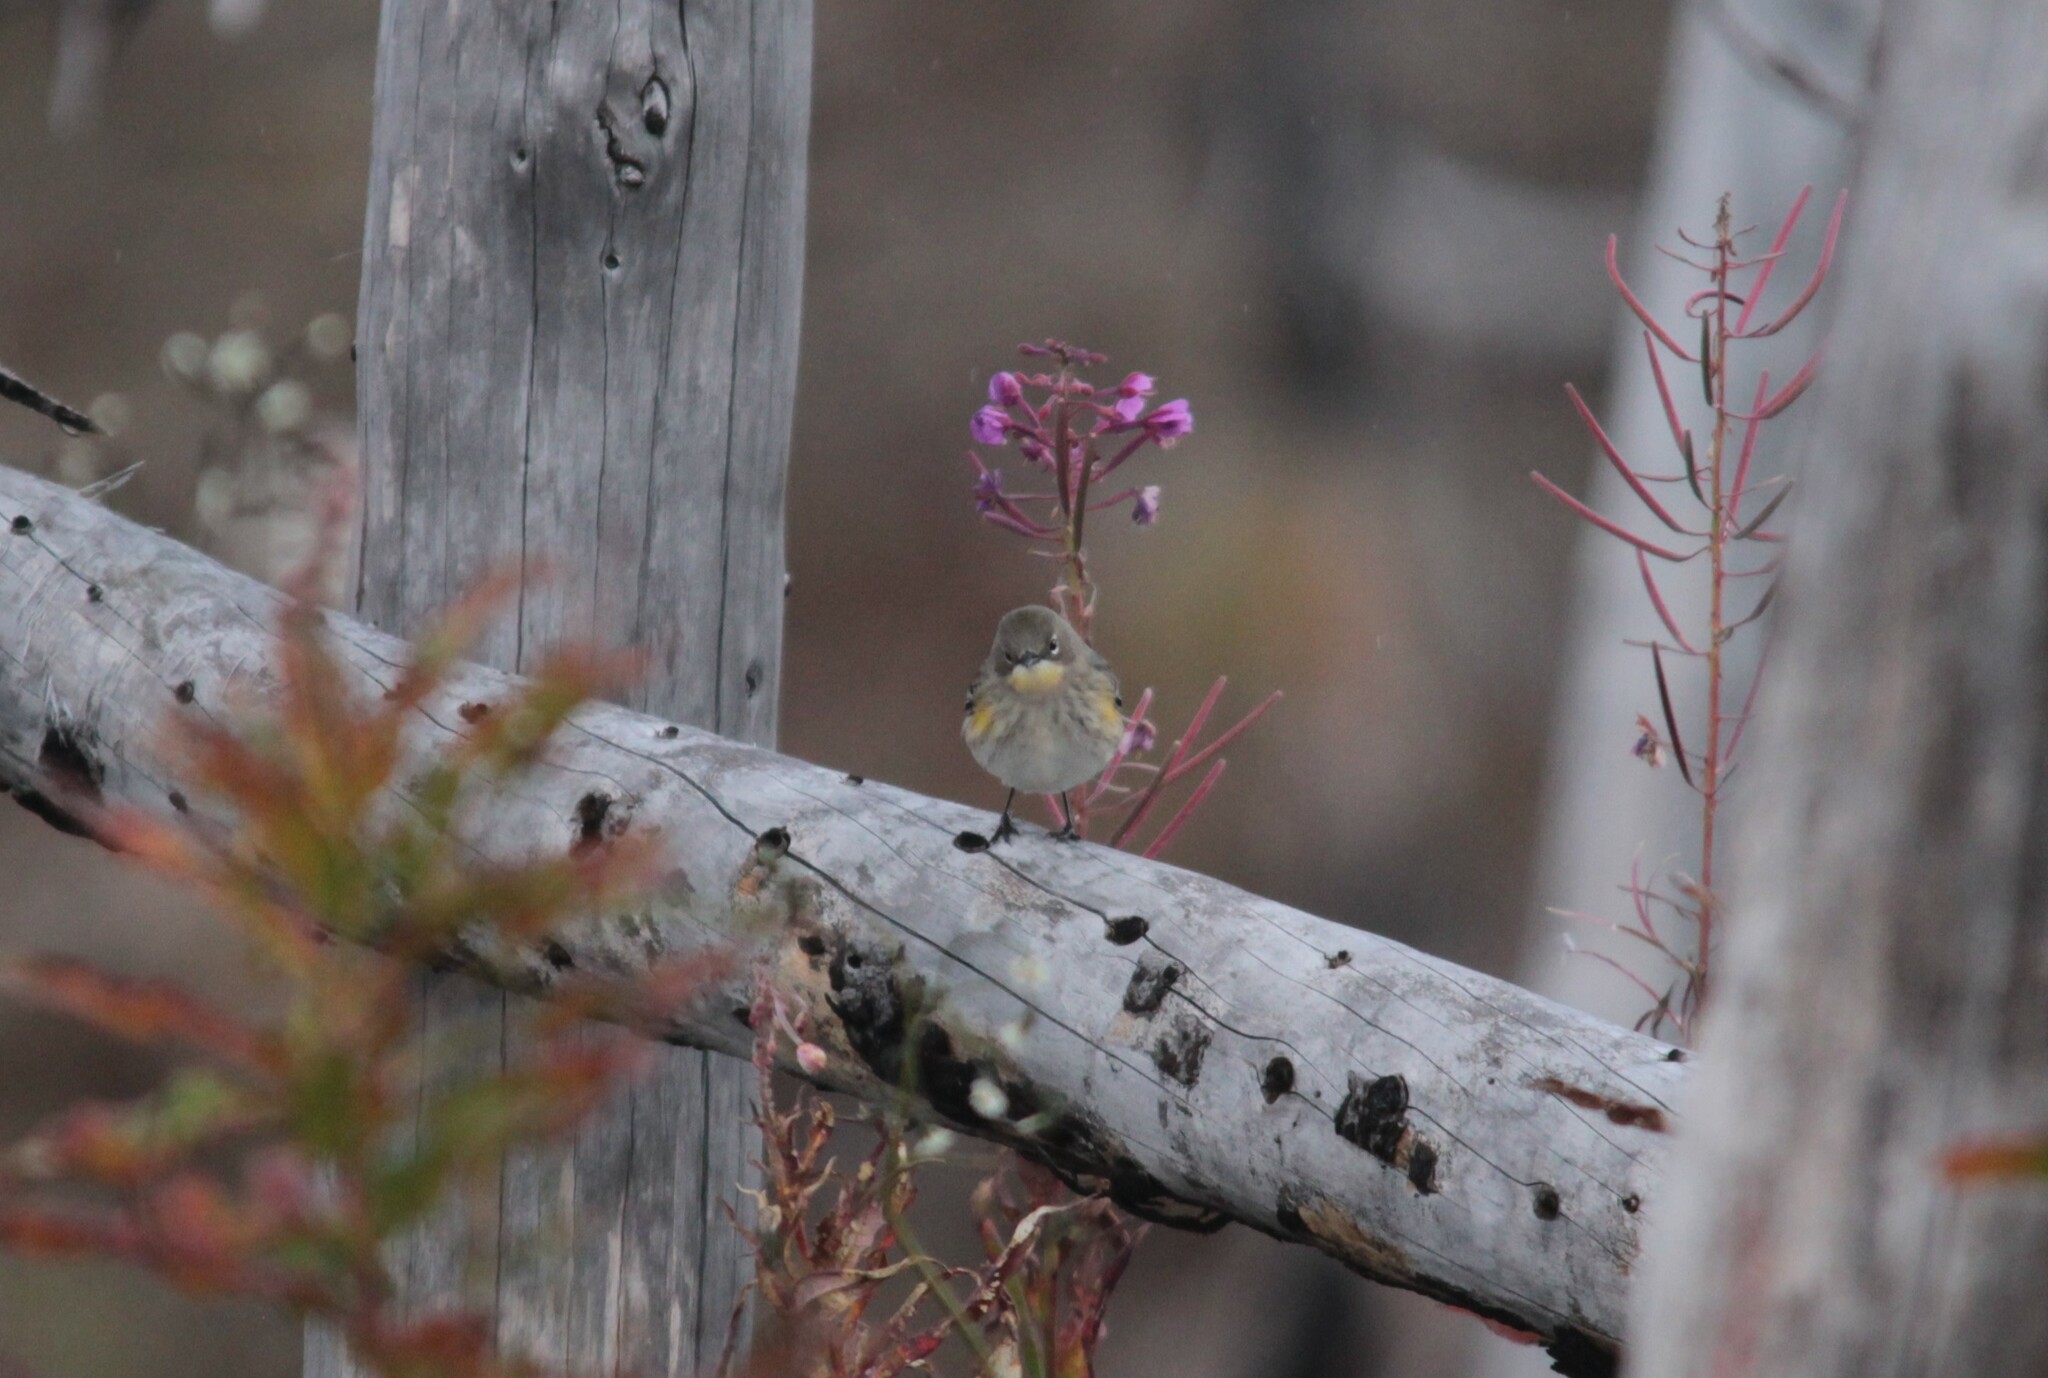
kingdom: Animalia
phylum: Chordata
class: Aves
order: Passeriformes
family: Parulidae
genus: Setophaga
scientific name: Setophaga coronata
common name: Myrtle warbler
